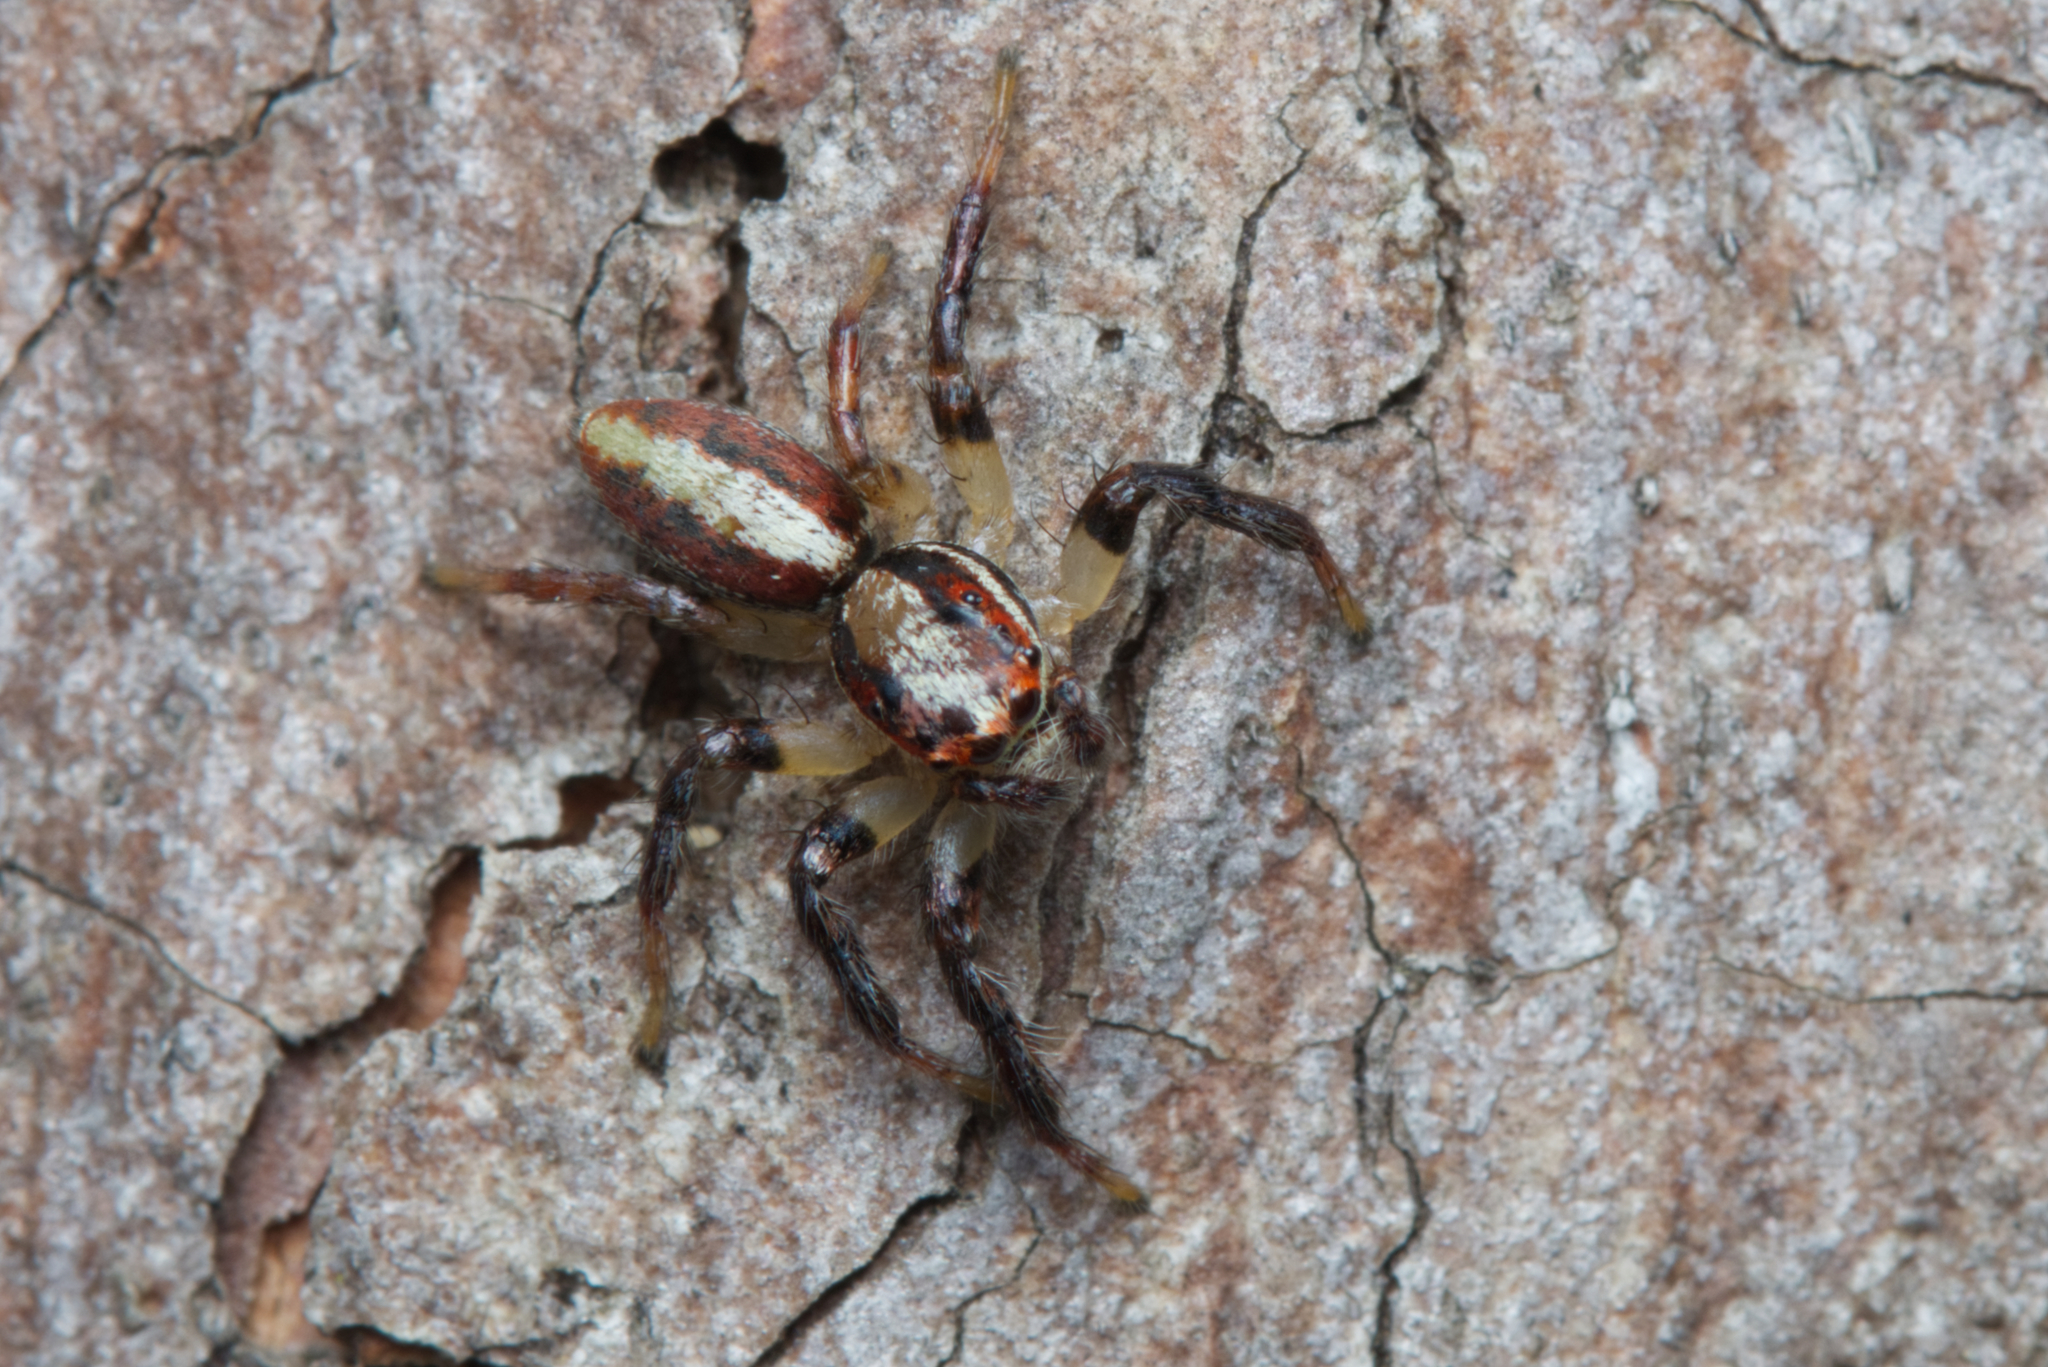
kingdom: Animalia
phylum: Arthropoda
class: Arachnida
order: Araneae
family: Salticidae
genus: Cytaea
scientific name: Cytaea alburna
